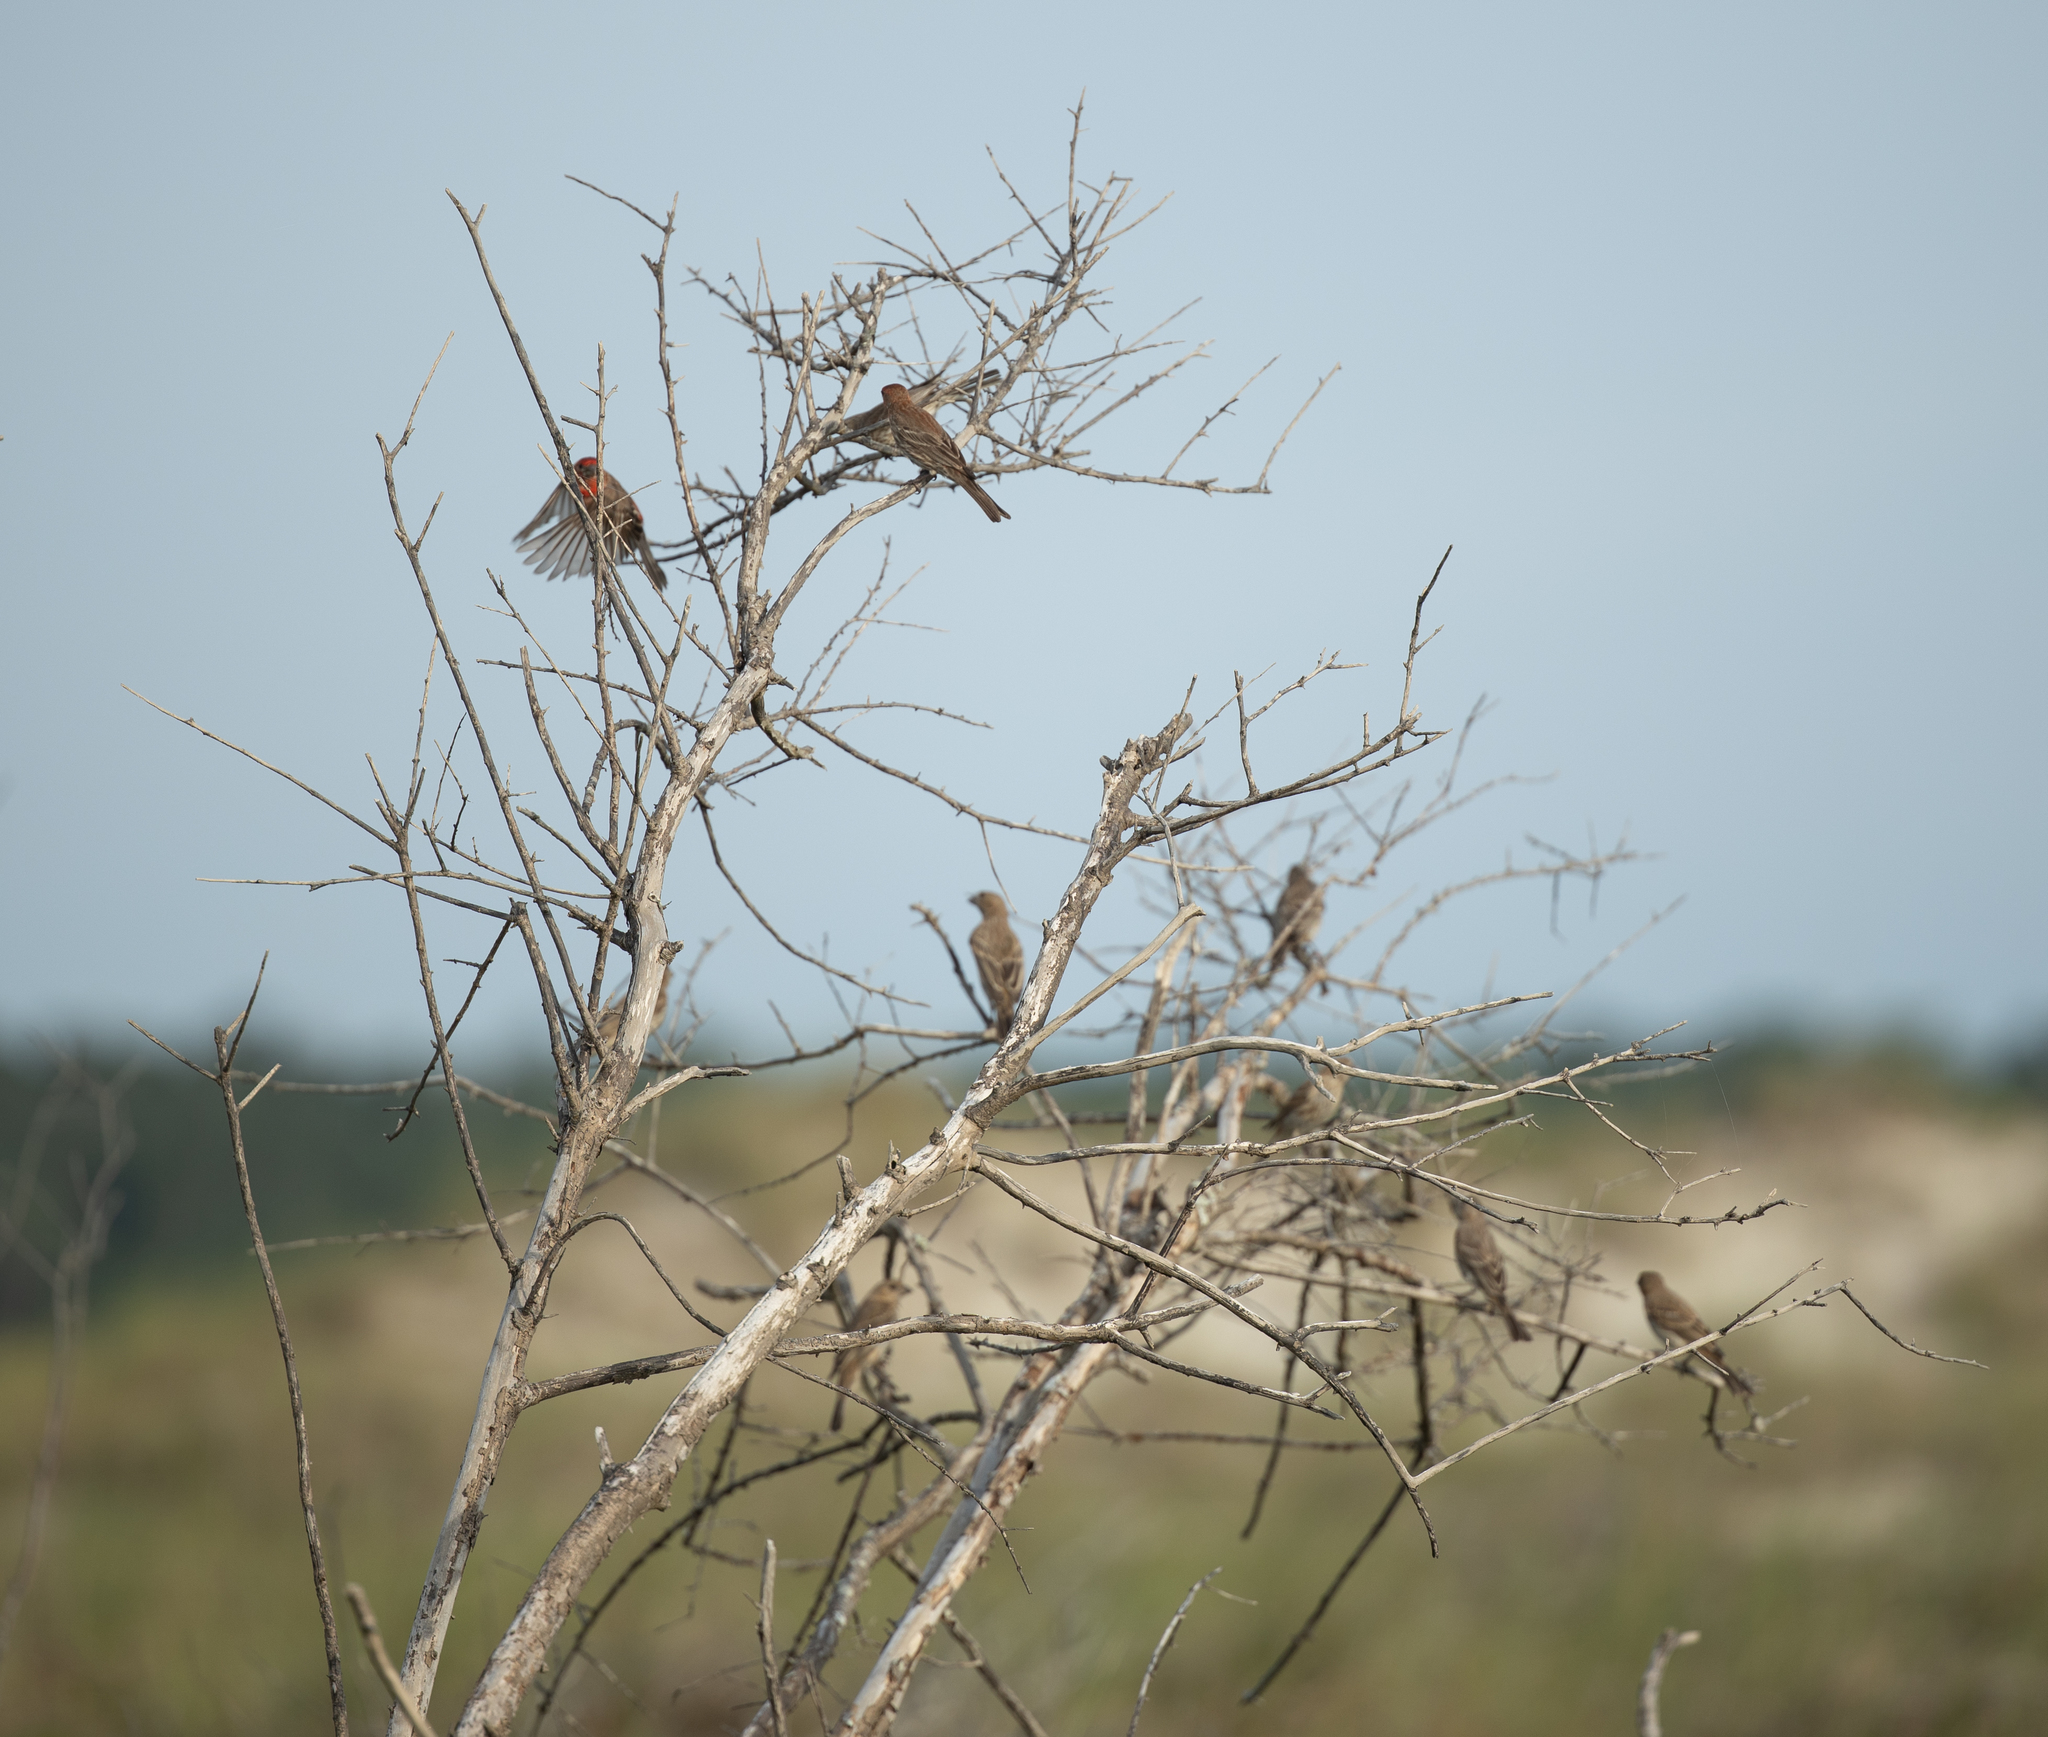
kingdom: Animalia
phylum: Chordata
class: Aves
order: Passeriformes
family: Fringillidae
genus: Haemorhous
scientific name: Haemorhous mexicanus
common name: House finch
